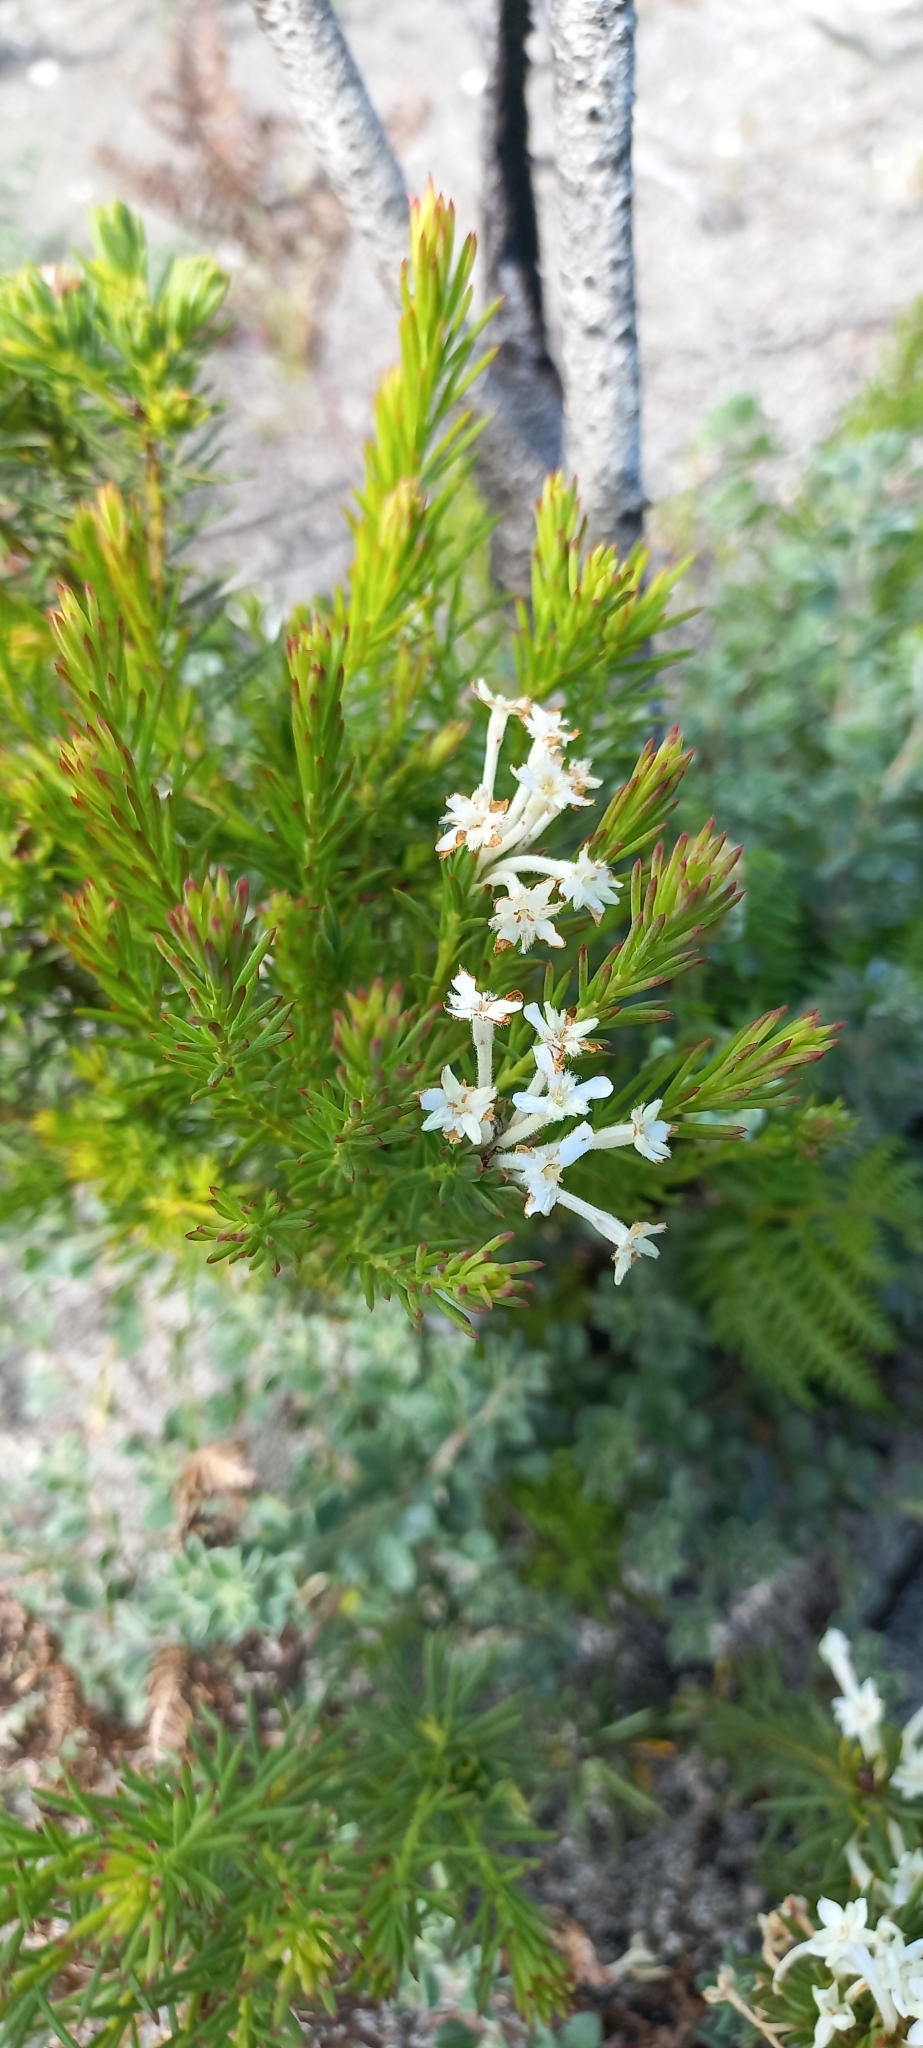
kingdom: Plantae
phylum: Tracheophyta
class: Magnoliopsida
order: Malvales
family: Thymelaeaceae
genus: Gnidia
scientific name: Gnidia pinifolia
